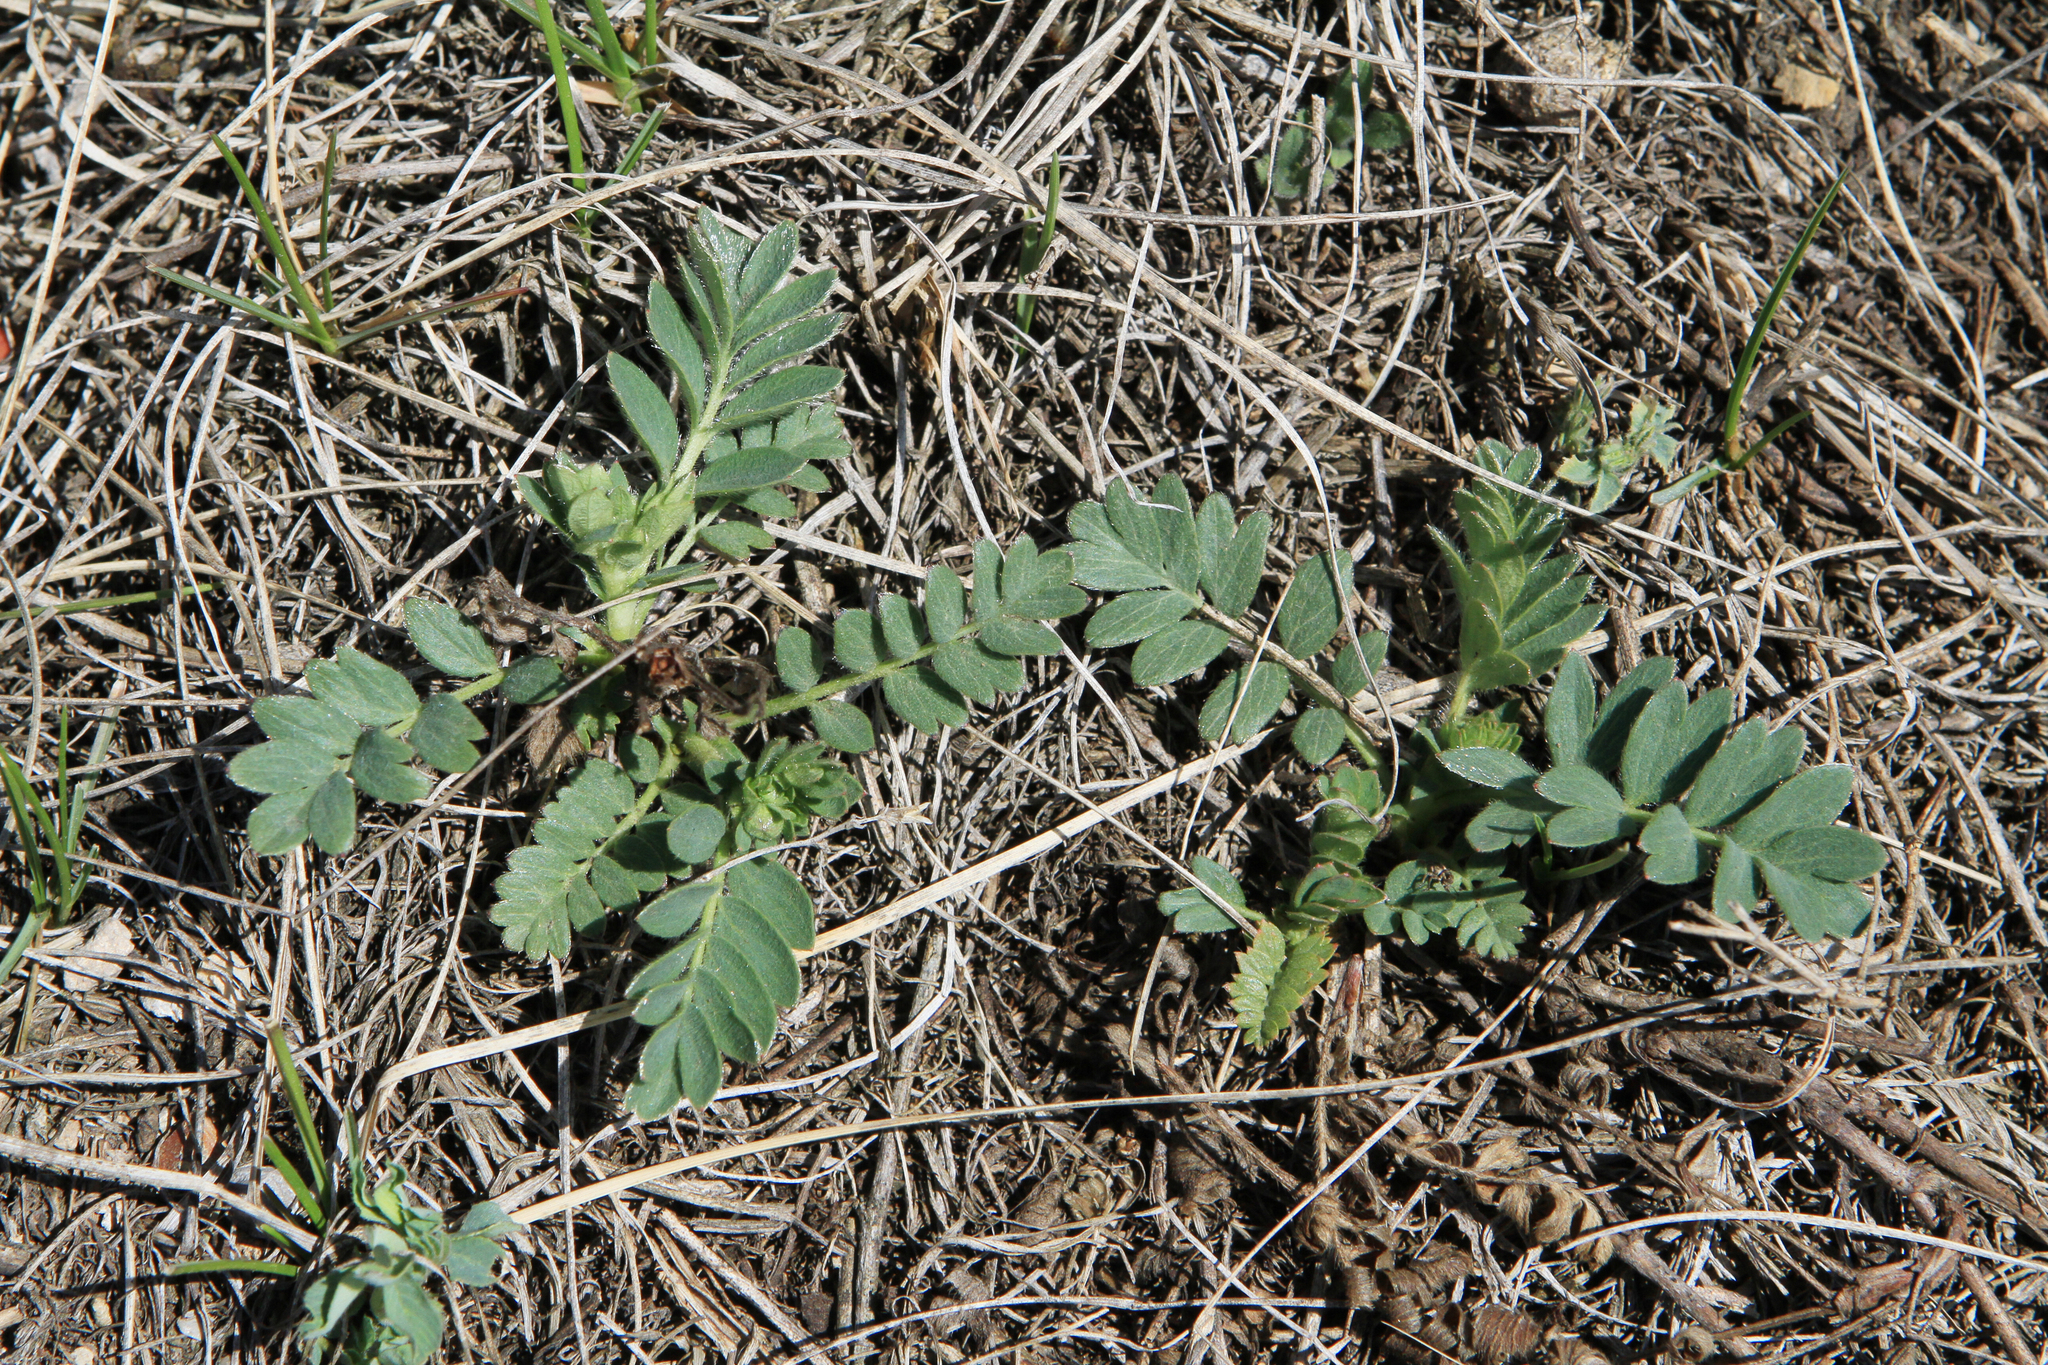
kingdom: Plantae
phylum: Tracheophyta
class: Magnoliopsida
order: Rosales
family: Rosaceae
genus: Sibbaldianthe
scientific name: Sibbaldianthe bifurca
